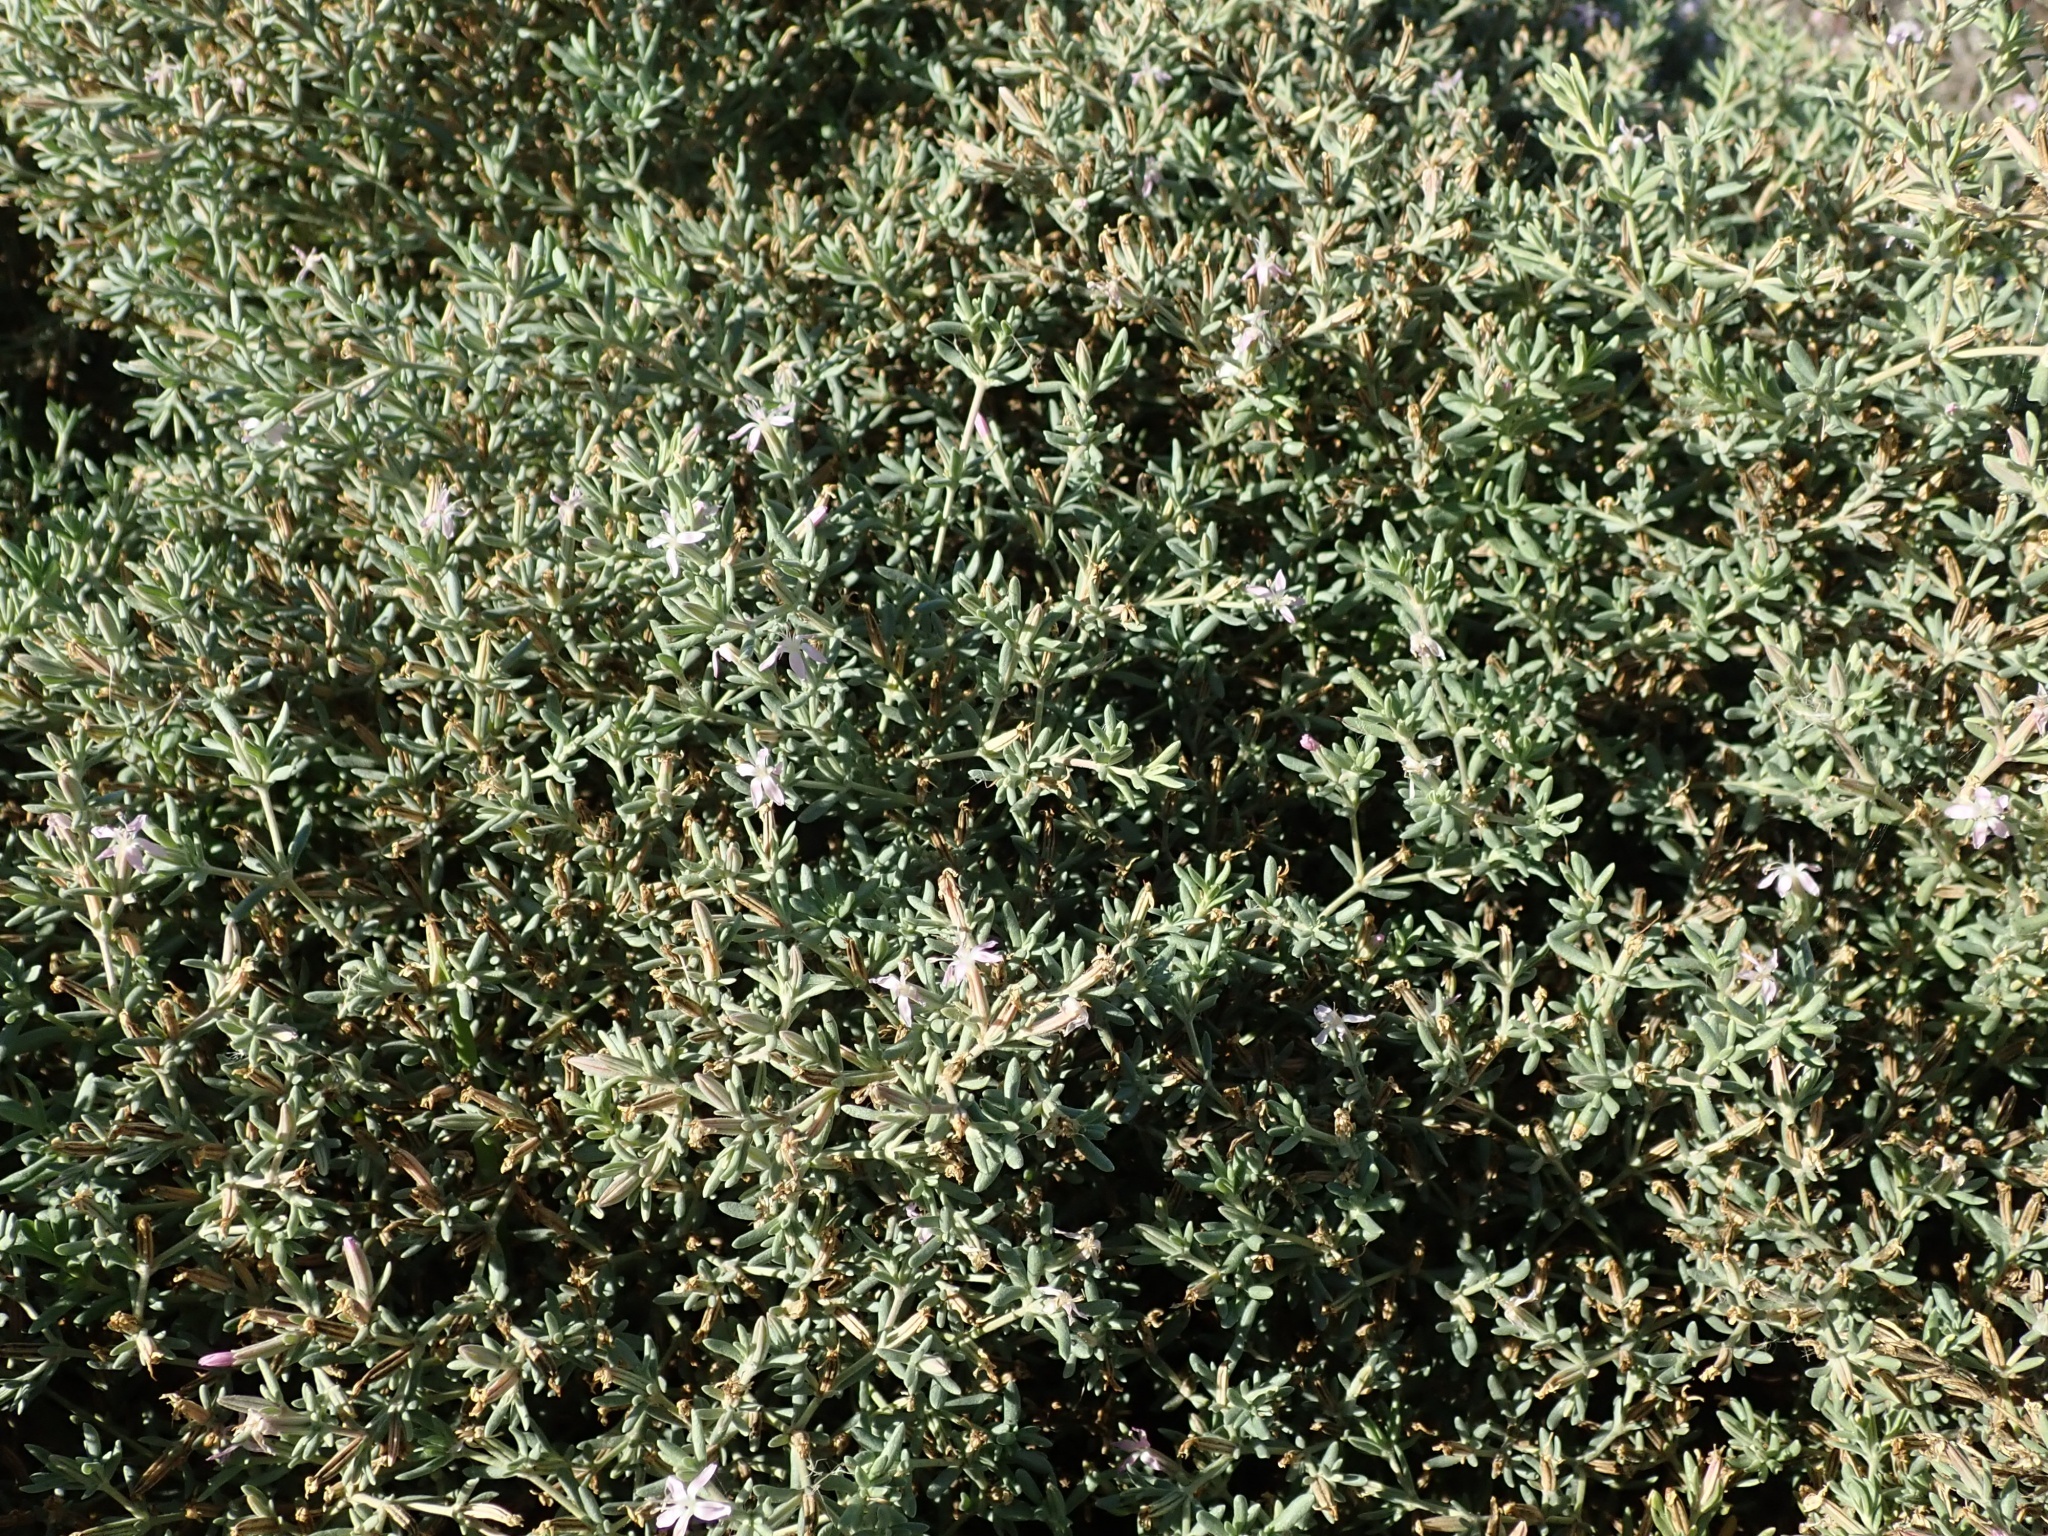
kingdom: Plantae
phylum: Tracheophyta
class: Magnoliopsida
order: Caryophyllales
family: Frankeniaceae
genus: Frankenia
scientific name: Frankenia salina
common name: Alkali seaheath
